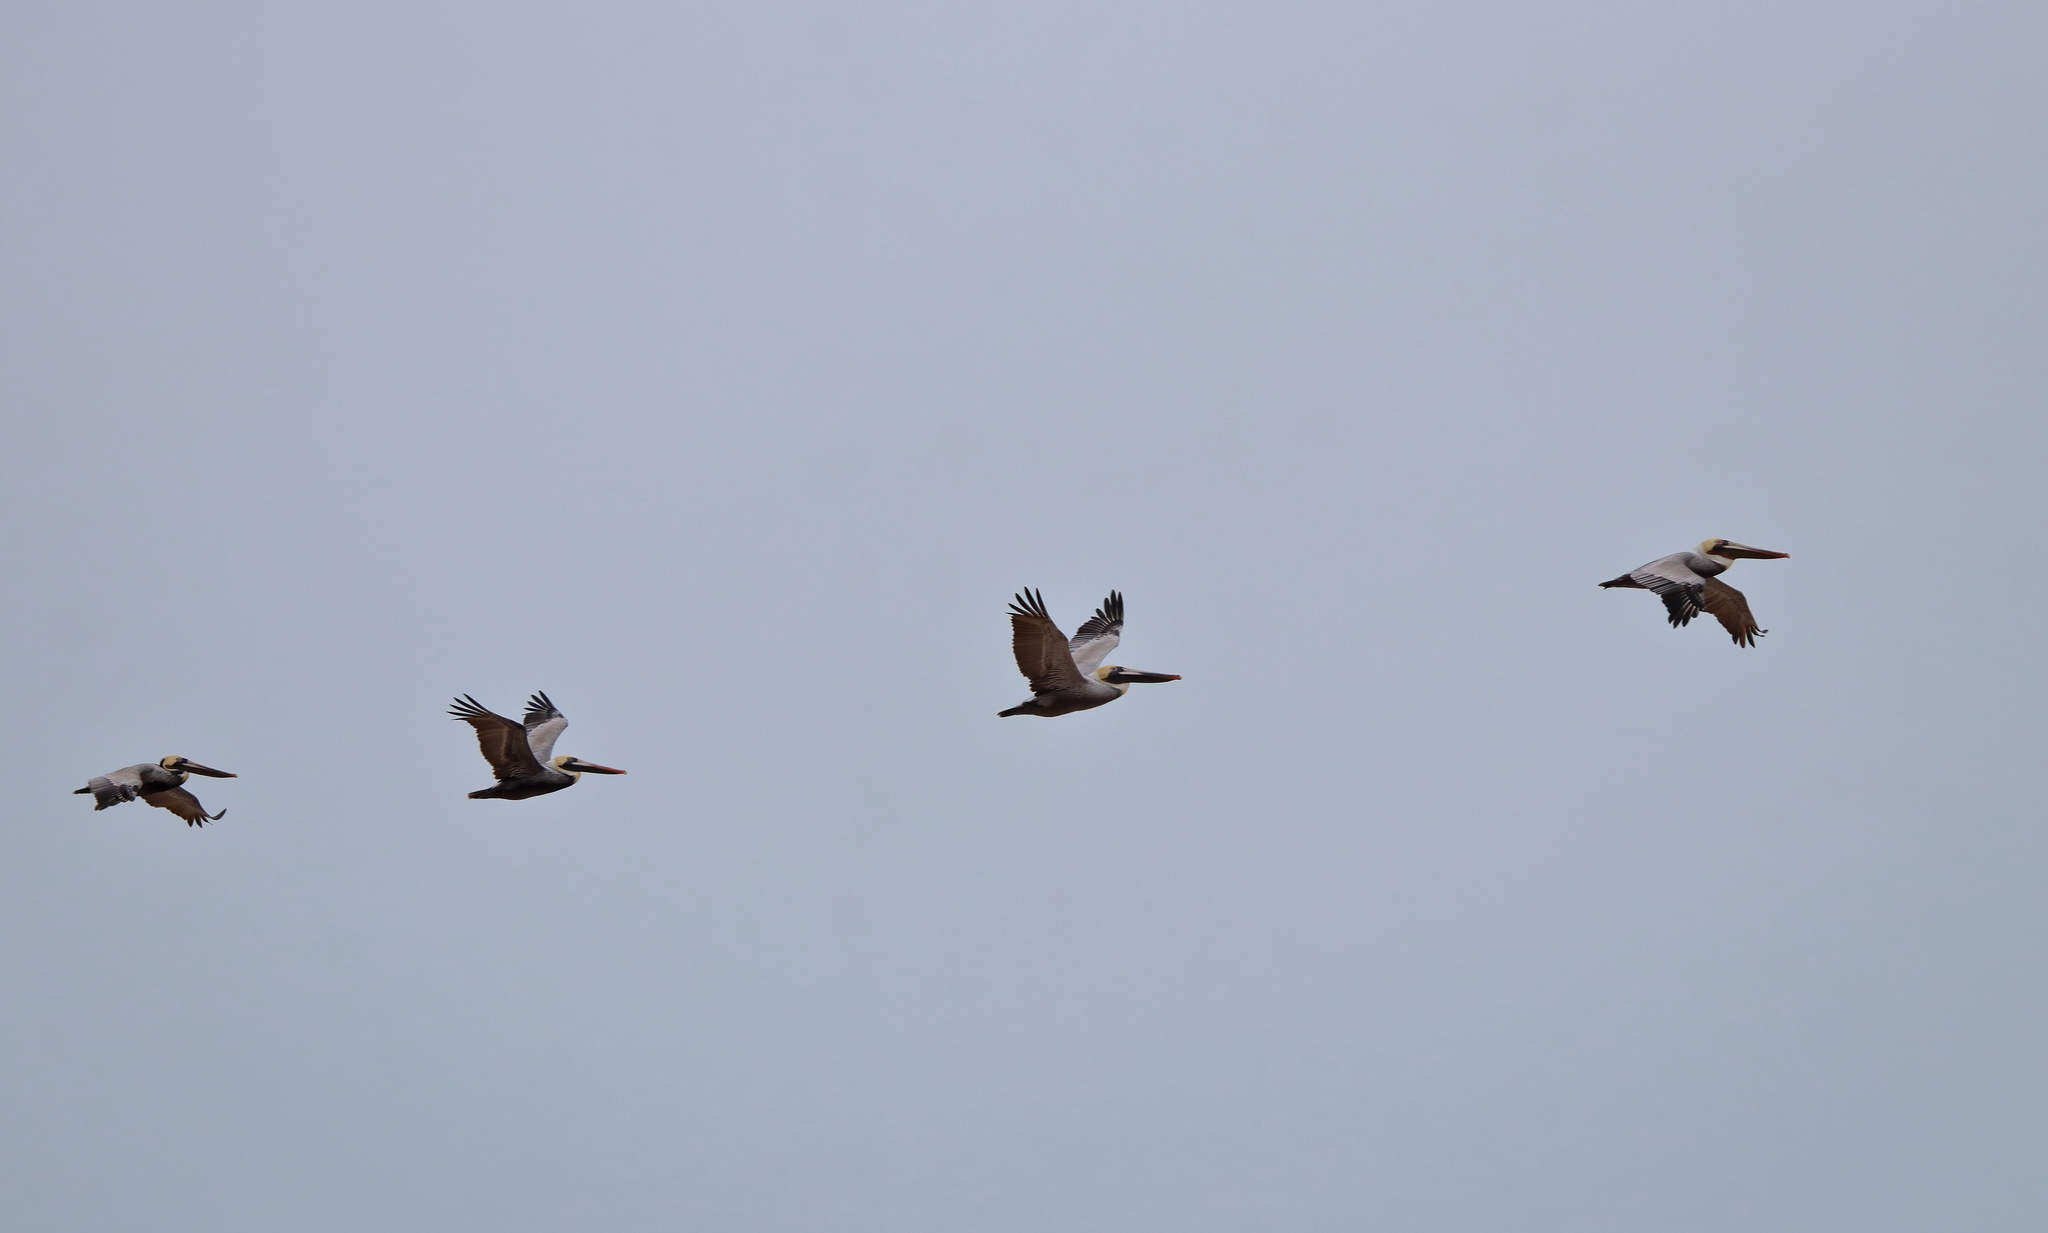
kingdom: Animalia
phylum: Chordata
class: Aves
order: Pelecaniformes
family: Pelecanidae
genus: Pelecanus
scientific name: Pelecanus occidentalis
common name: Brown pelican
